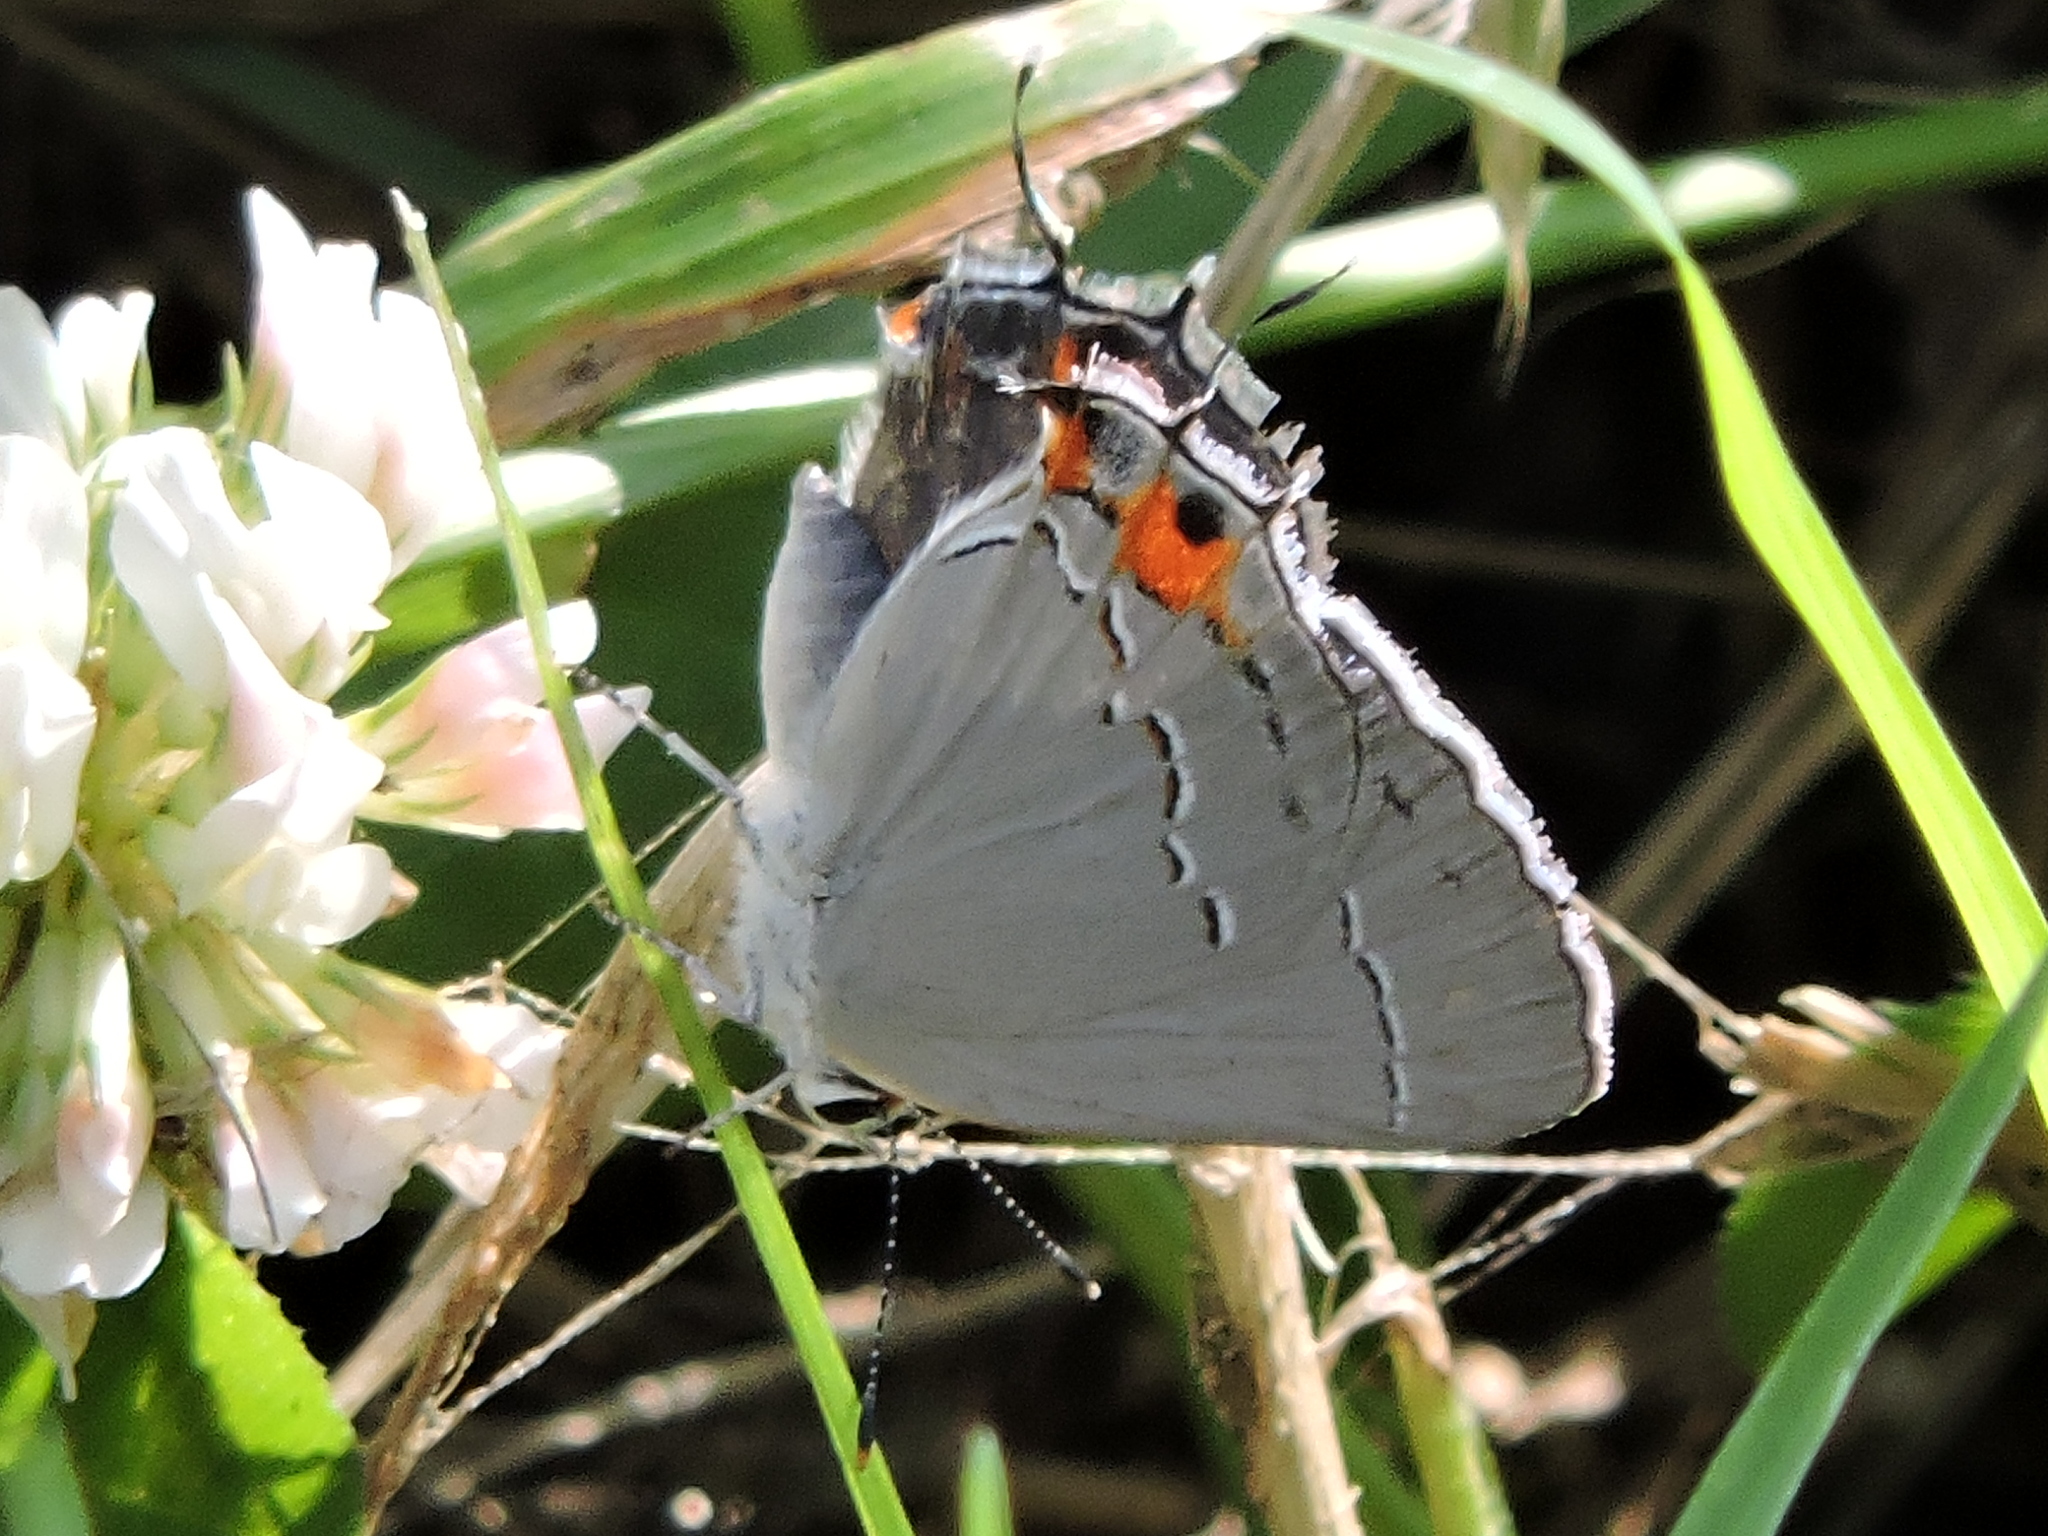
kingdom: Animalia
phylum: Arthropoda
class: Insecta
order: Lepidoptera
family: Lycaenidae
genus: Strymon
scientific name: Strymon melinus
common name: Gray hairstreak
